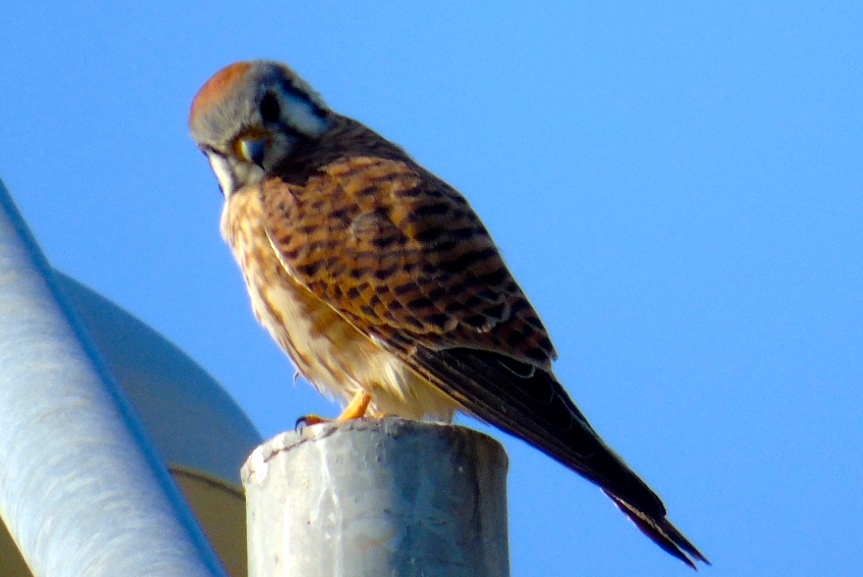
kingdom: Animalia
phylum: Chordata
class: Aves
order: Falconiformes
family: Falconidae
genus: Falco
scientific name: Falco sparverius
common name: American kestrel
